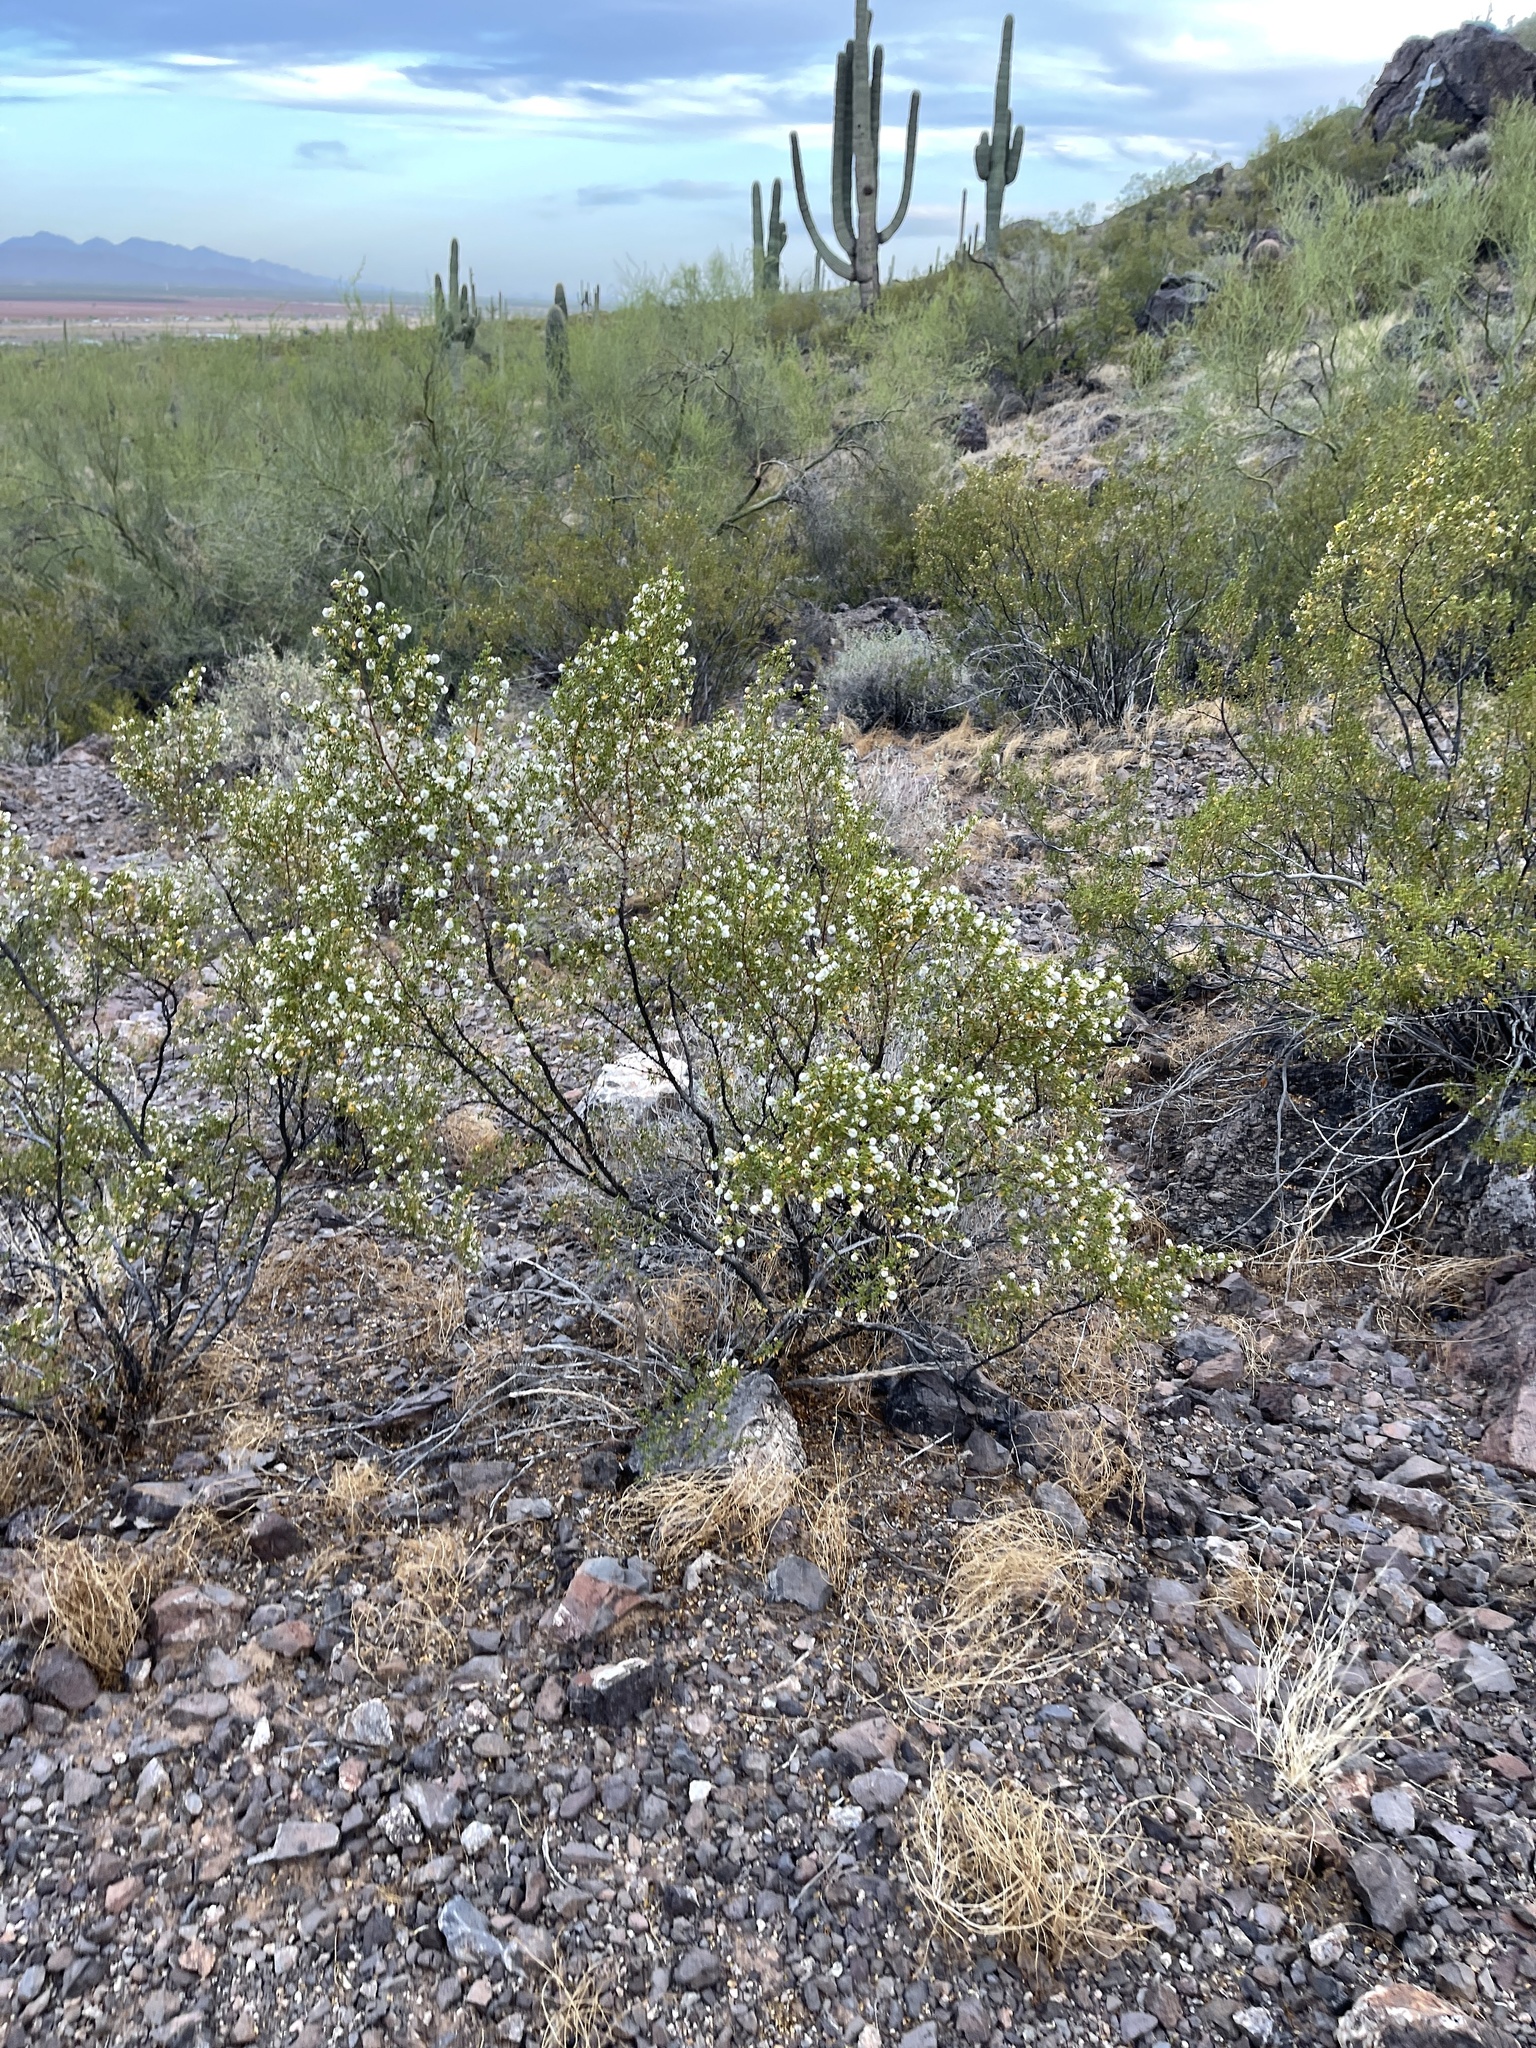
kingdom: Plantae
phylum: Tracheophyta
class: Magnoliopsida
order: Zygophyllales
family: Zygophyllaceae
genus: Larrea
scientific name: Larrea tridentata
